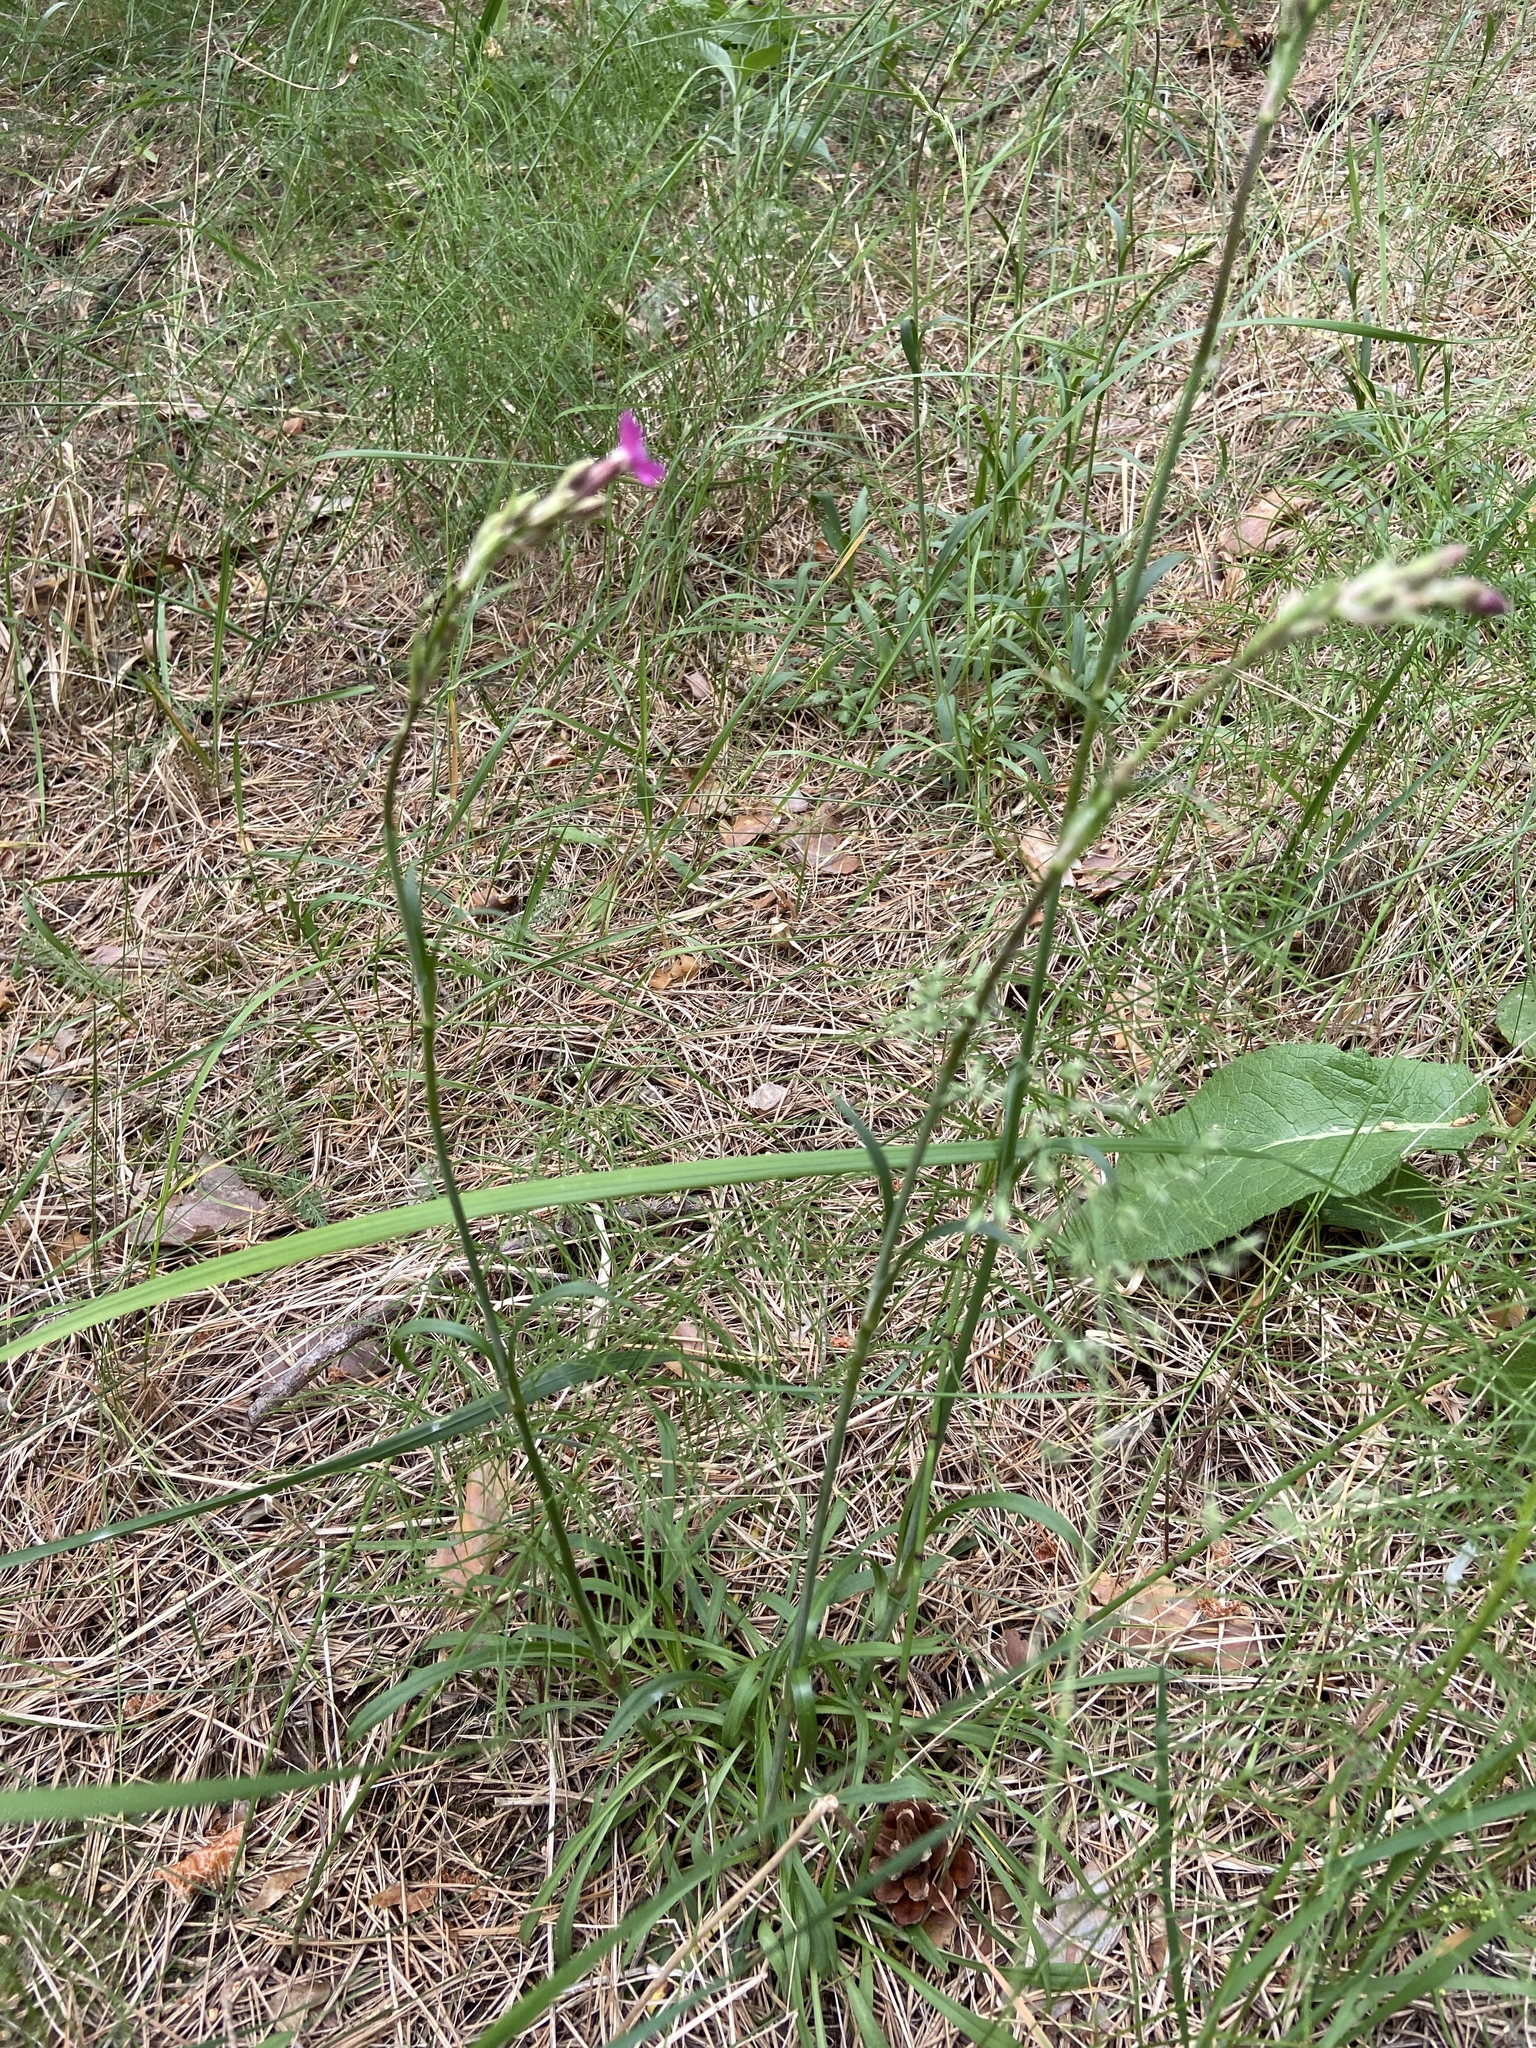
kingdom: Plantae
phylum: Tracheophyta
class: Magnoliopsida
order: Caryophyllales
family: Caryophyllaceae
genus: Viscaria
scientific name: Viscaria vulgaris
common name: Clammy campion
